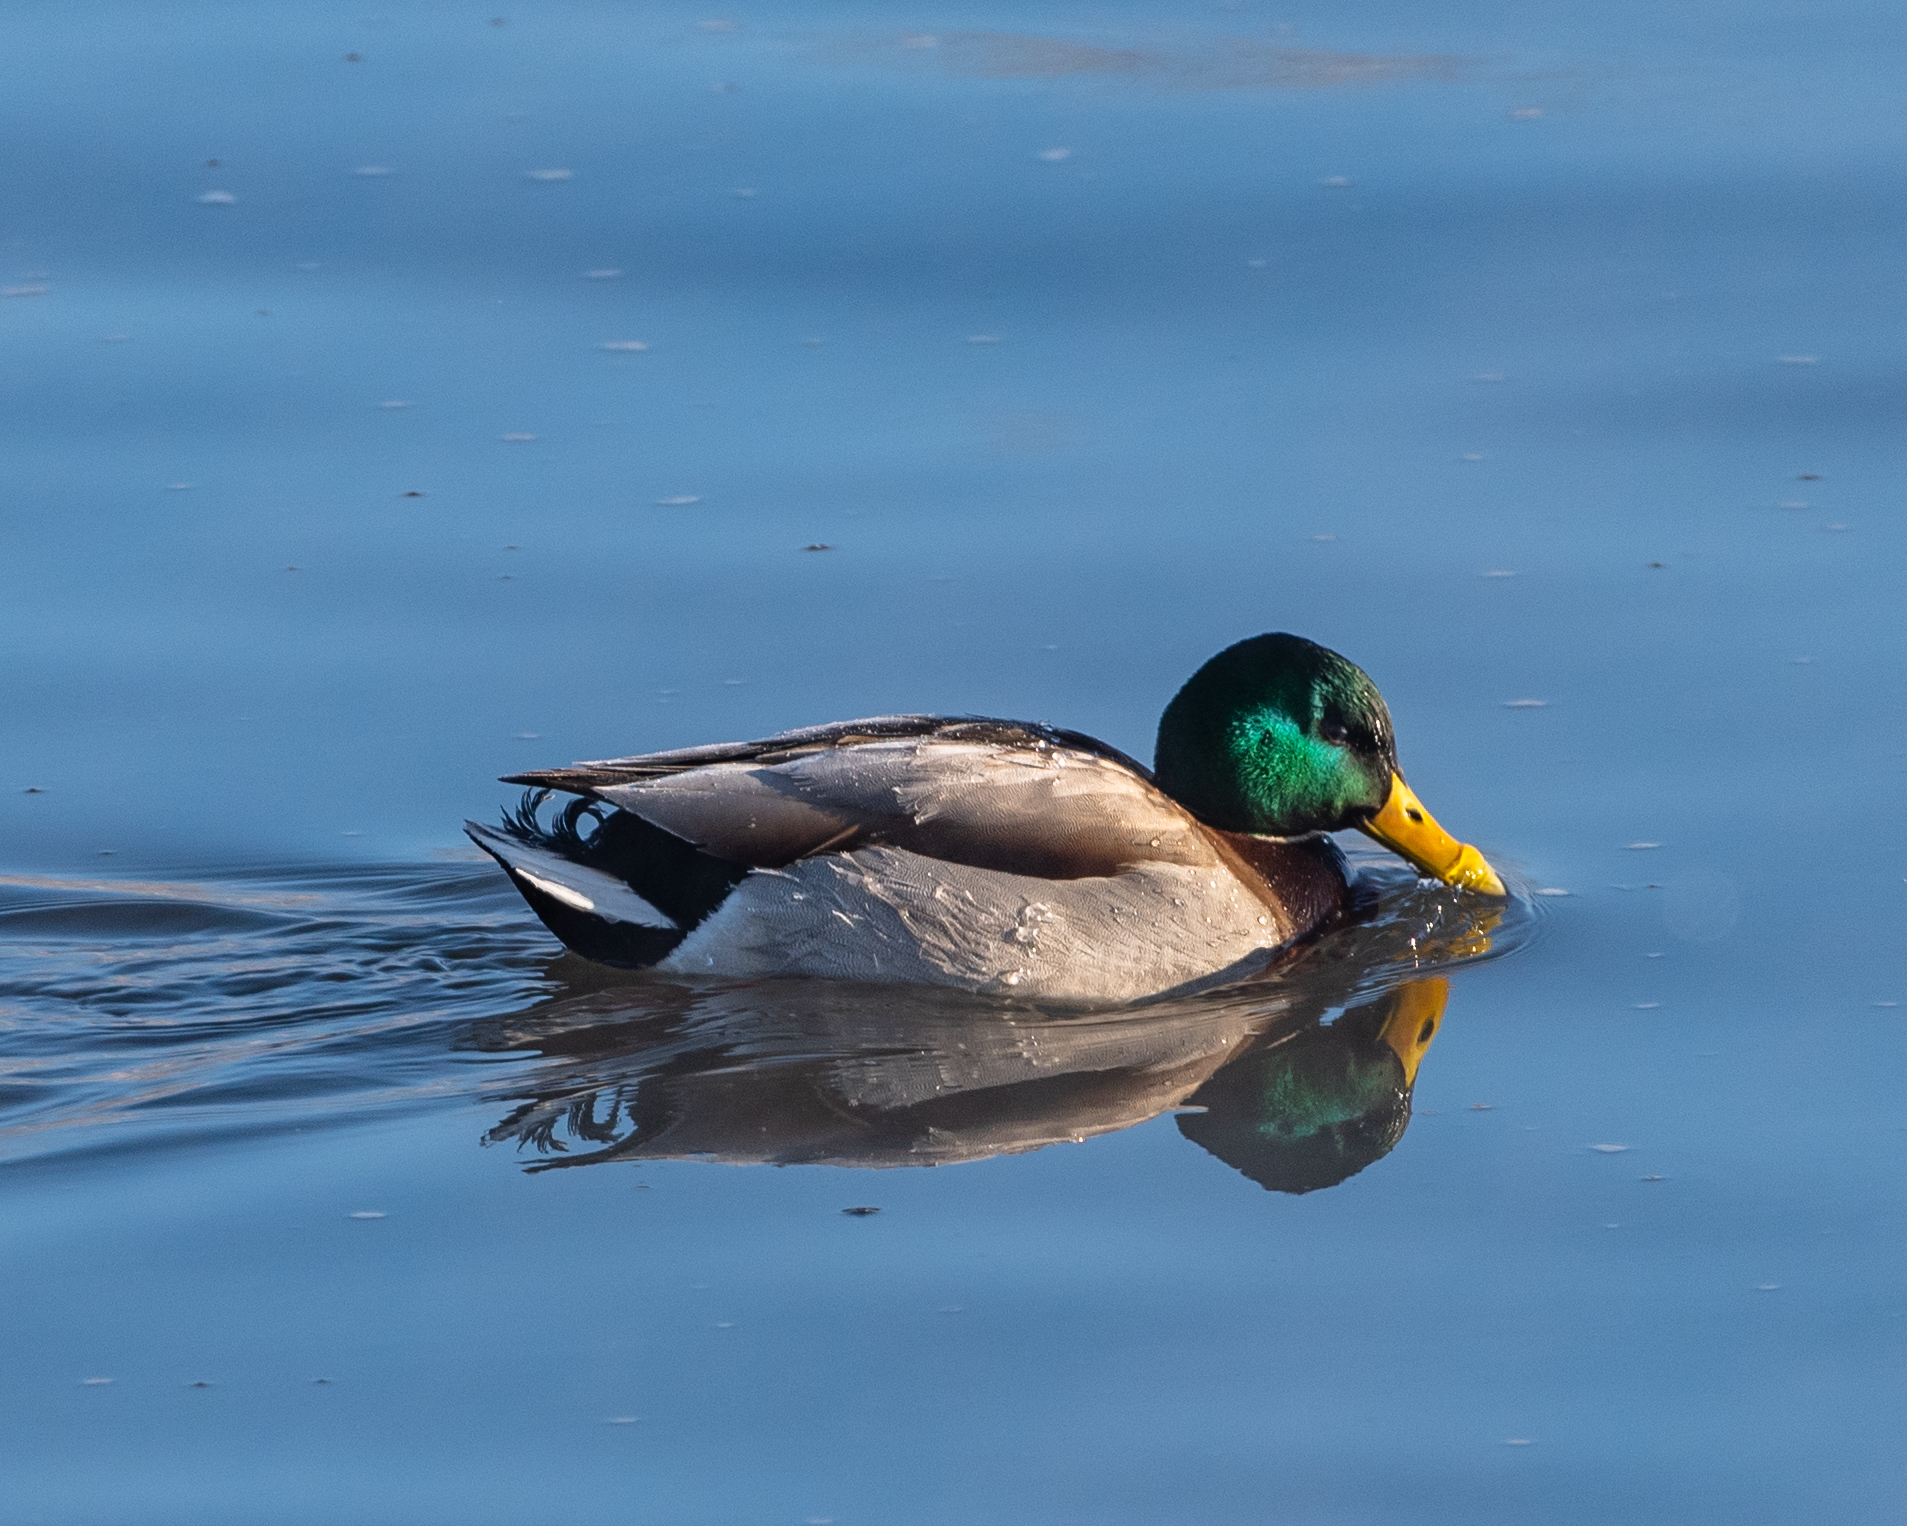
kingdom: Animalia
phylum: Chordata
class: Aves
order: Anseriformes
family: Anatidae
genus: Anas
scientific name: Anas platyrhynchos
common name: Mallard
